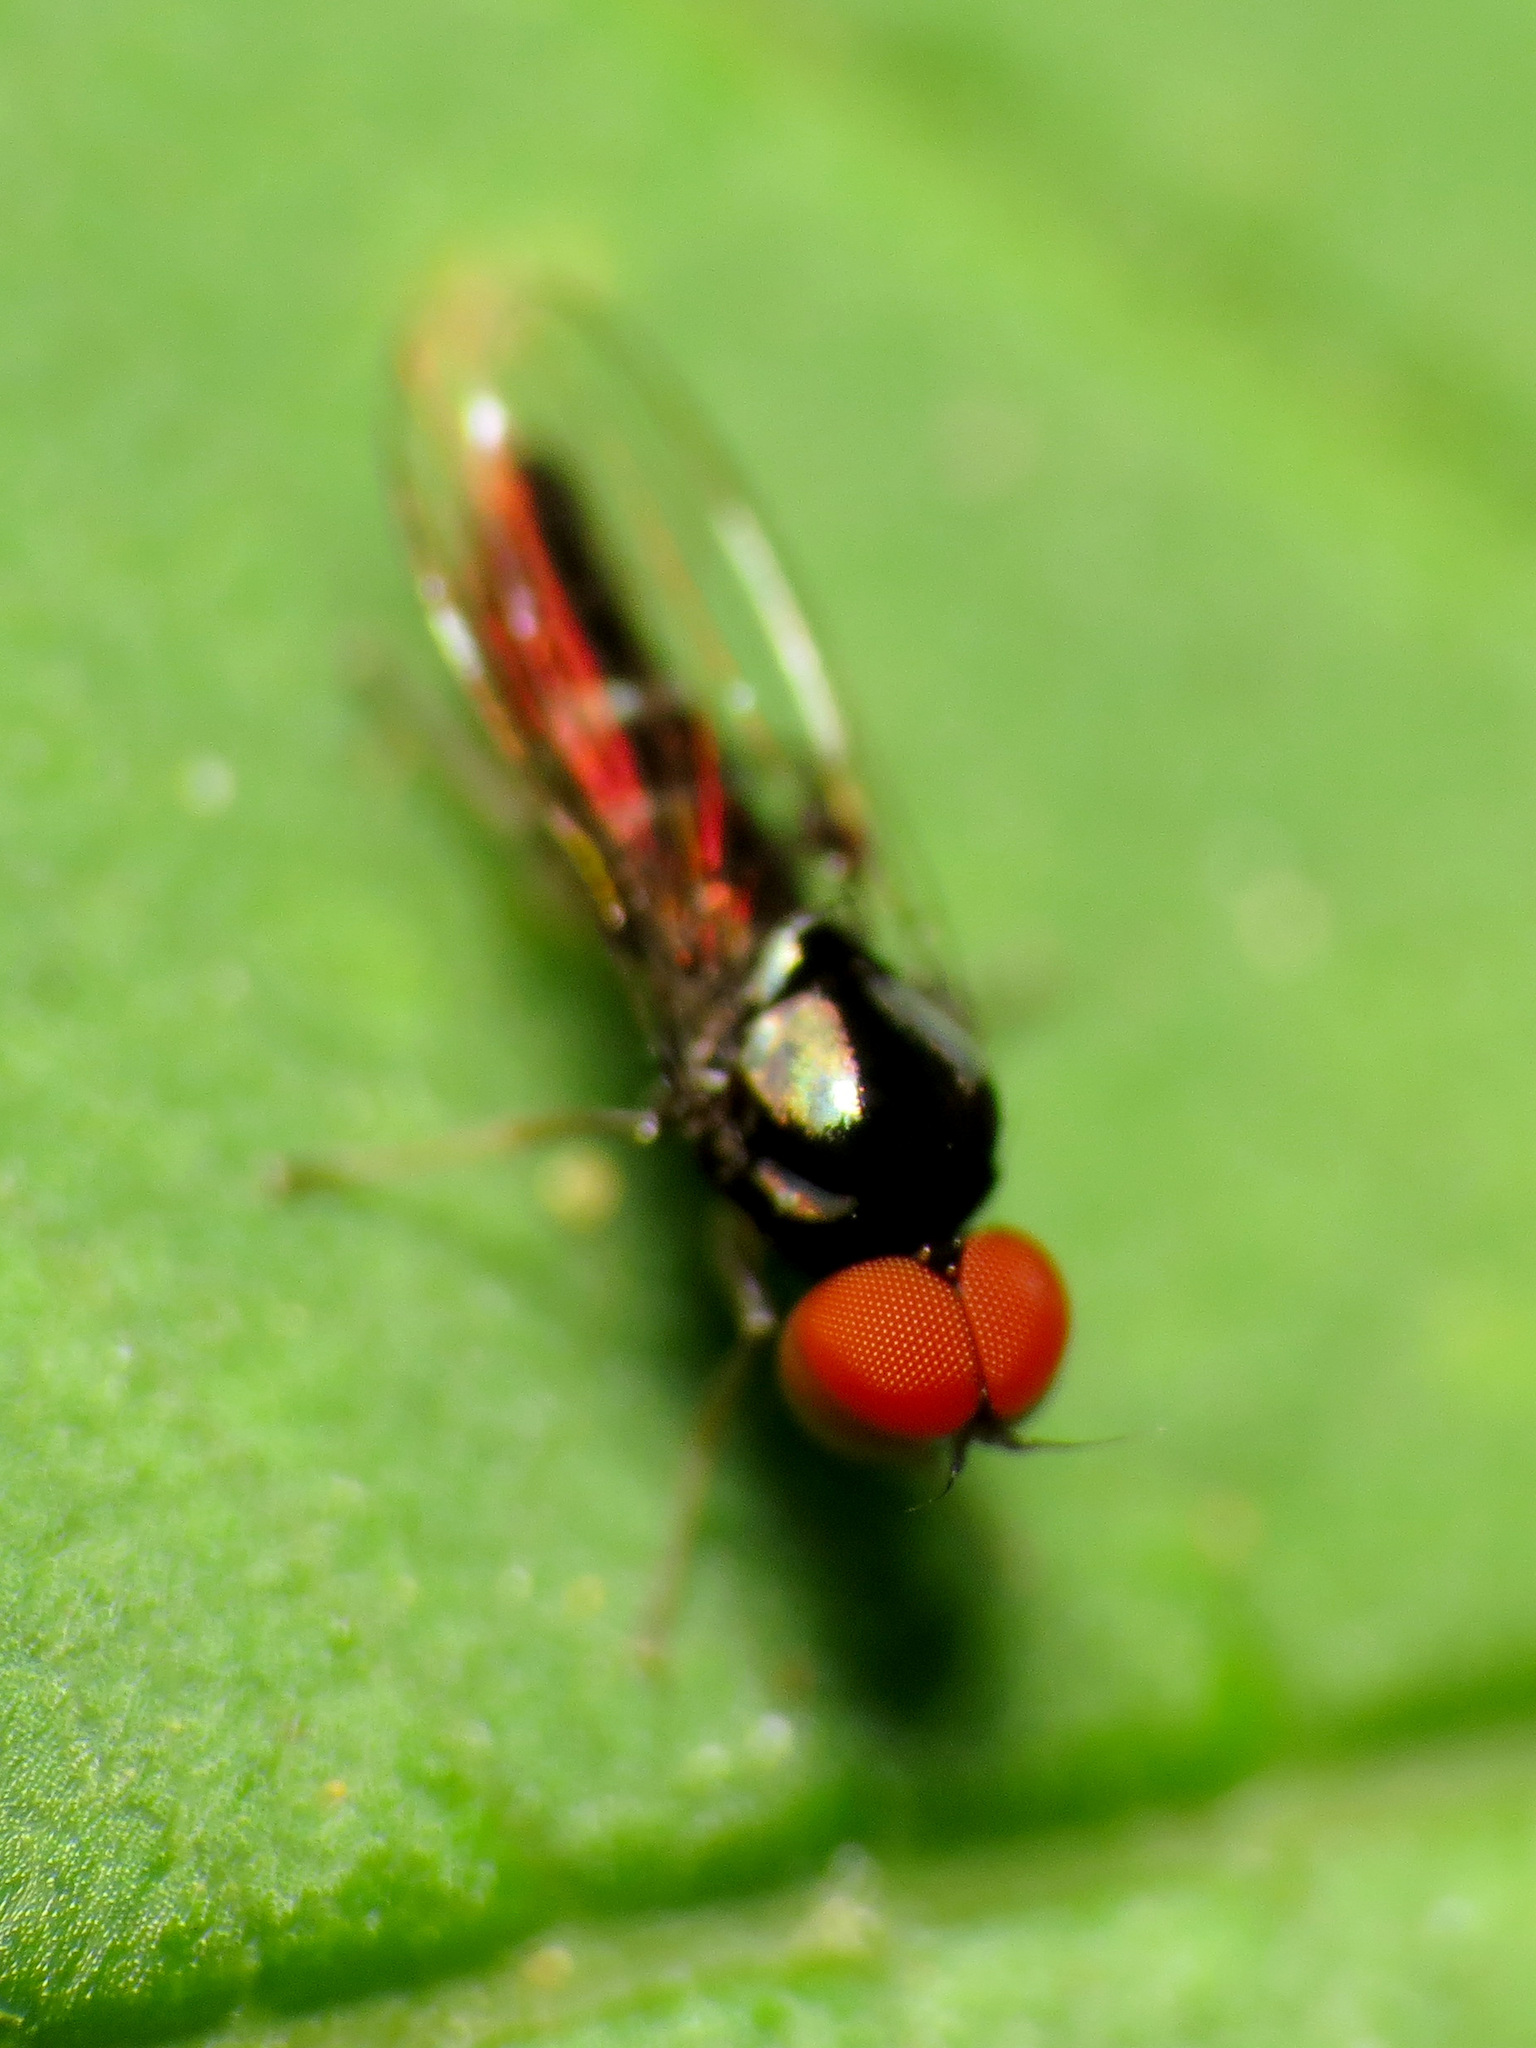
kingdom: Animalia
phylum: Arthropoda
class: Insecta
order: Diptera
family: Platypezidae
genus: Bertamyia
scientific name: Bertamyia notata
